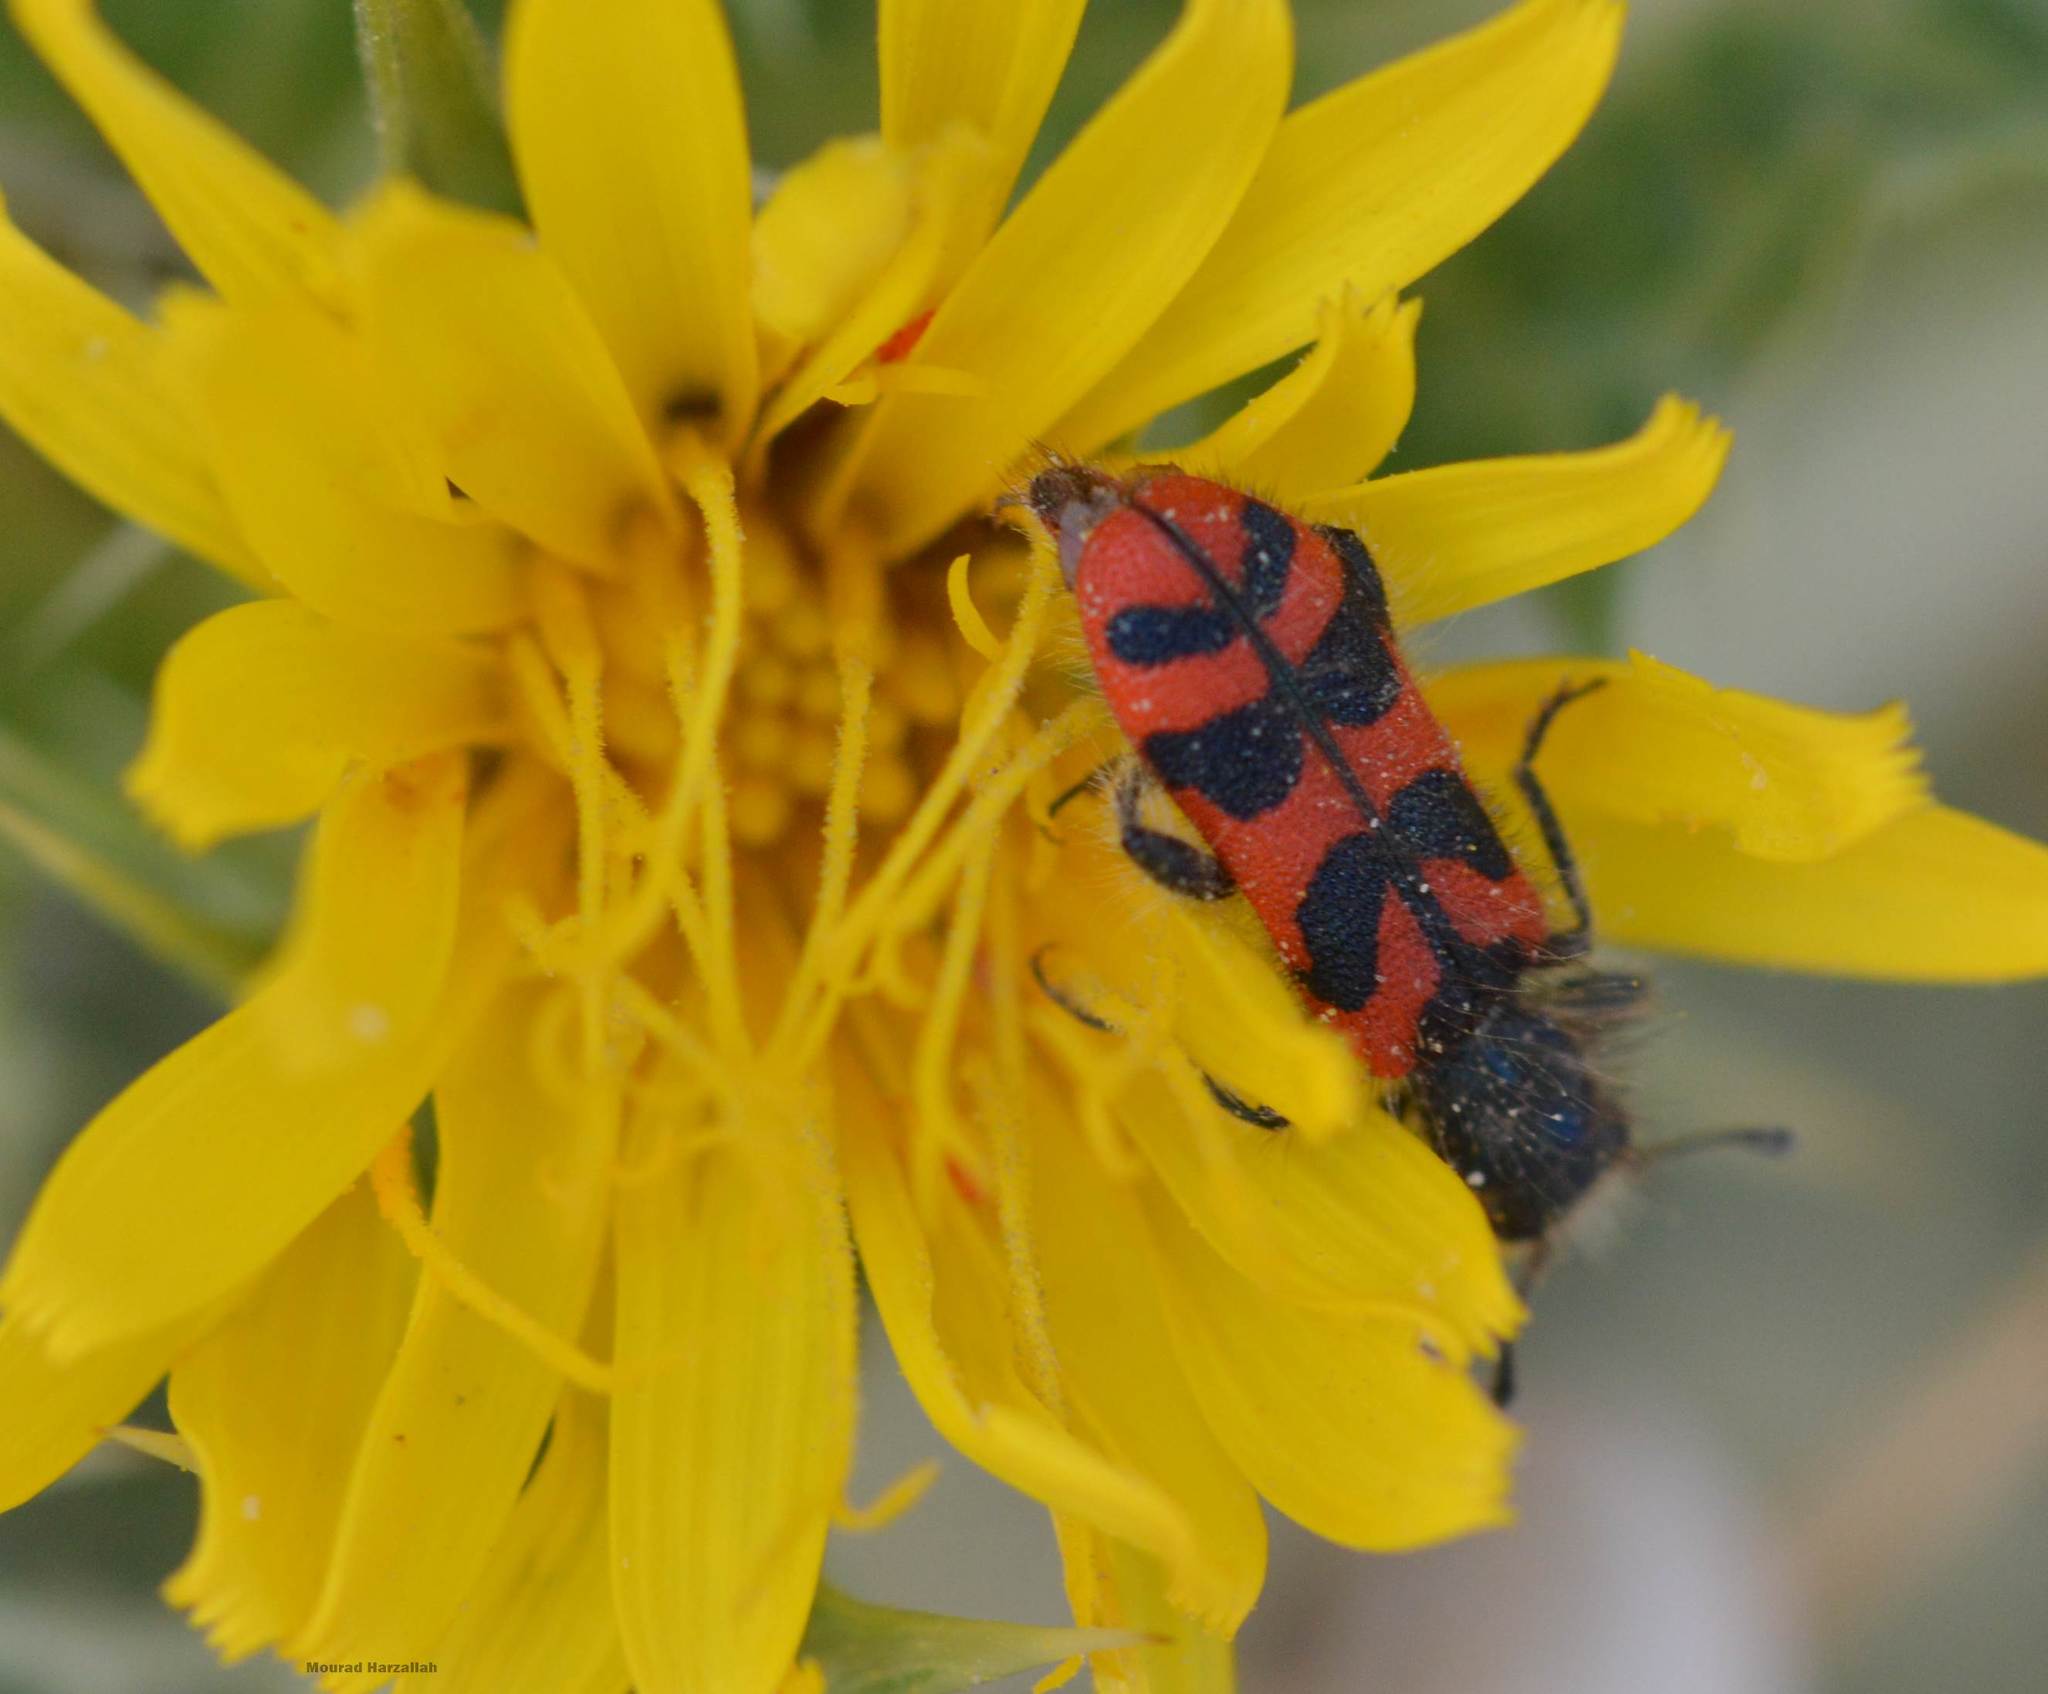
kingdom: Animalia
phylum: Arthropoda
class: Insecta
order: Coleoptera
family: Cleridae
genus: Trichodes
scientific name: Trichodes leucopsideus
